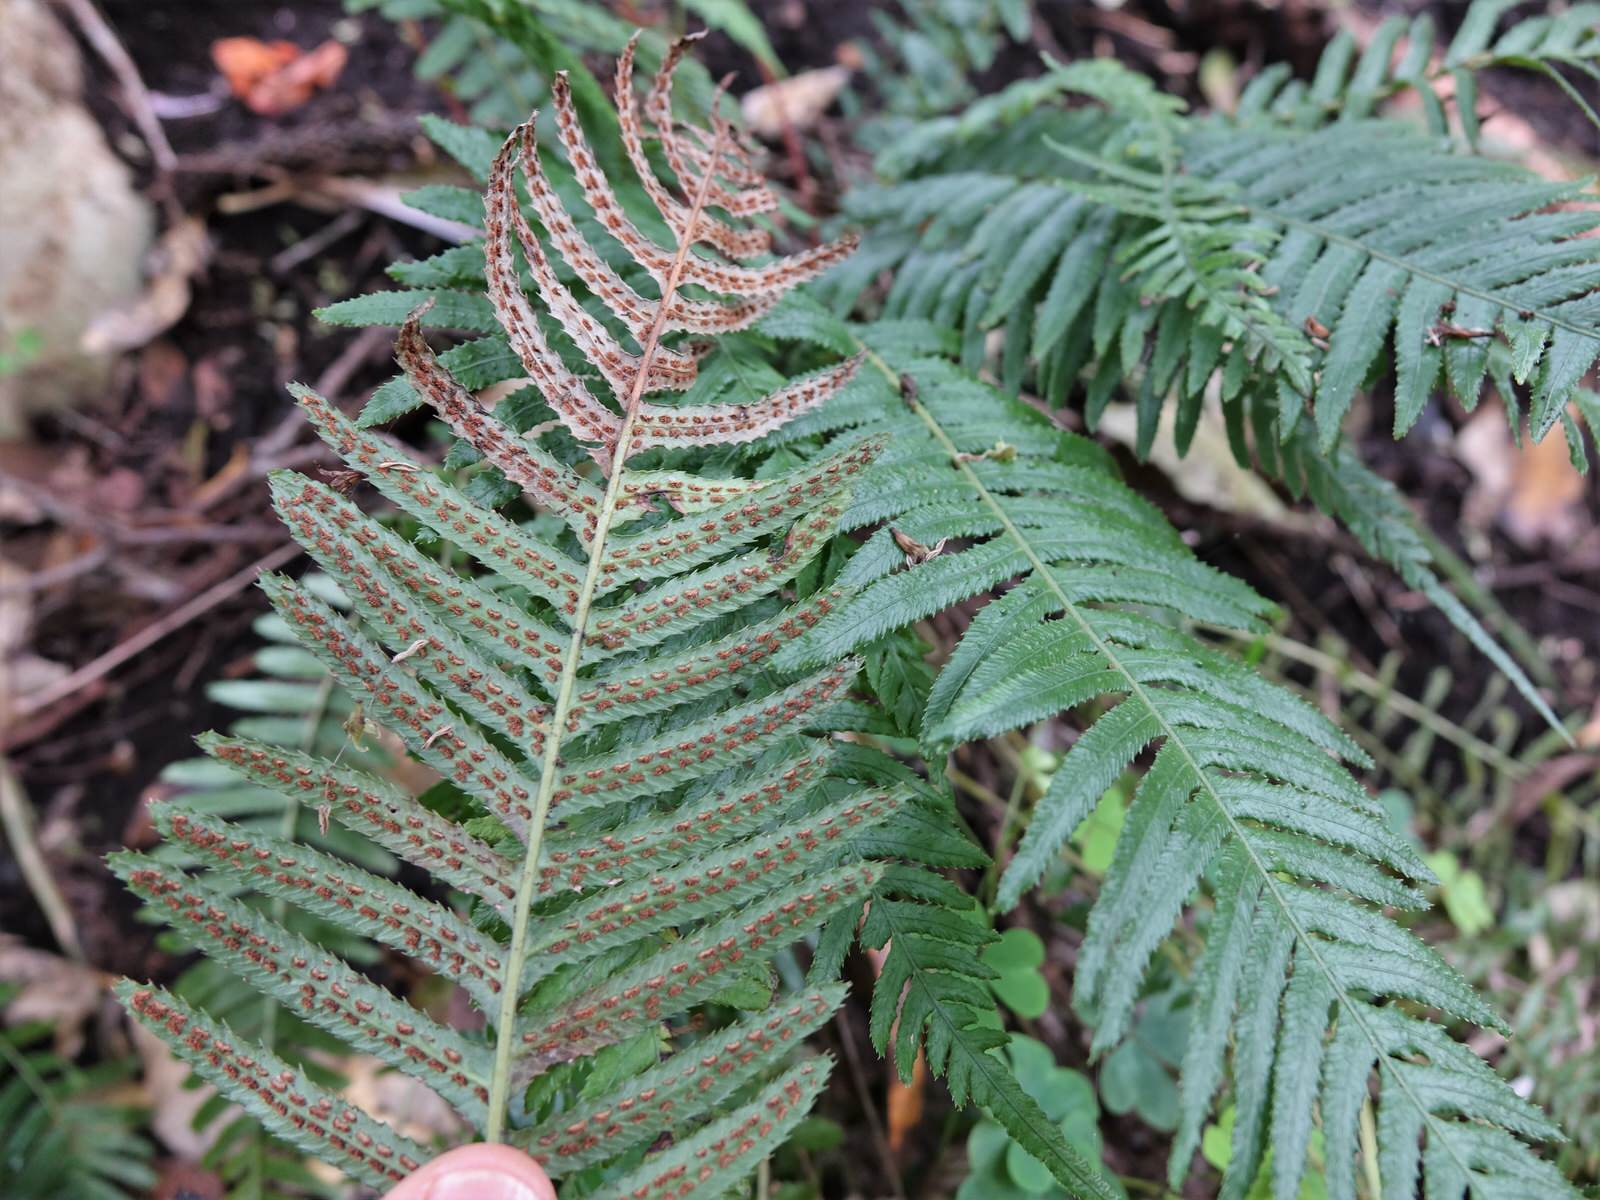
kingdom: Plantae
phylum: Tracheophyta
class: Polypodiopsida
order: Polypodiales
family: Blechnaceae
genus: Doodia
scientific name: Doodia australis
